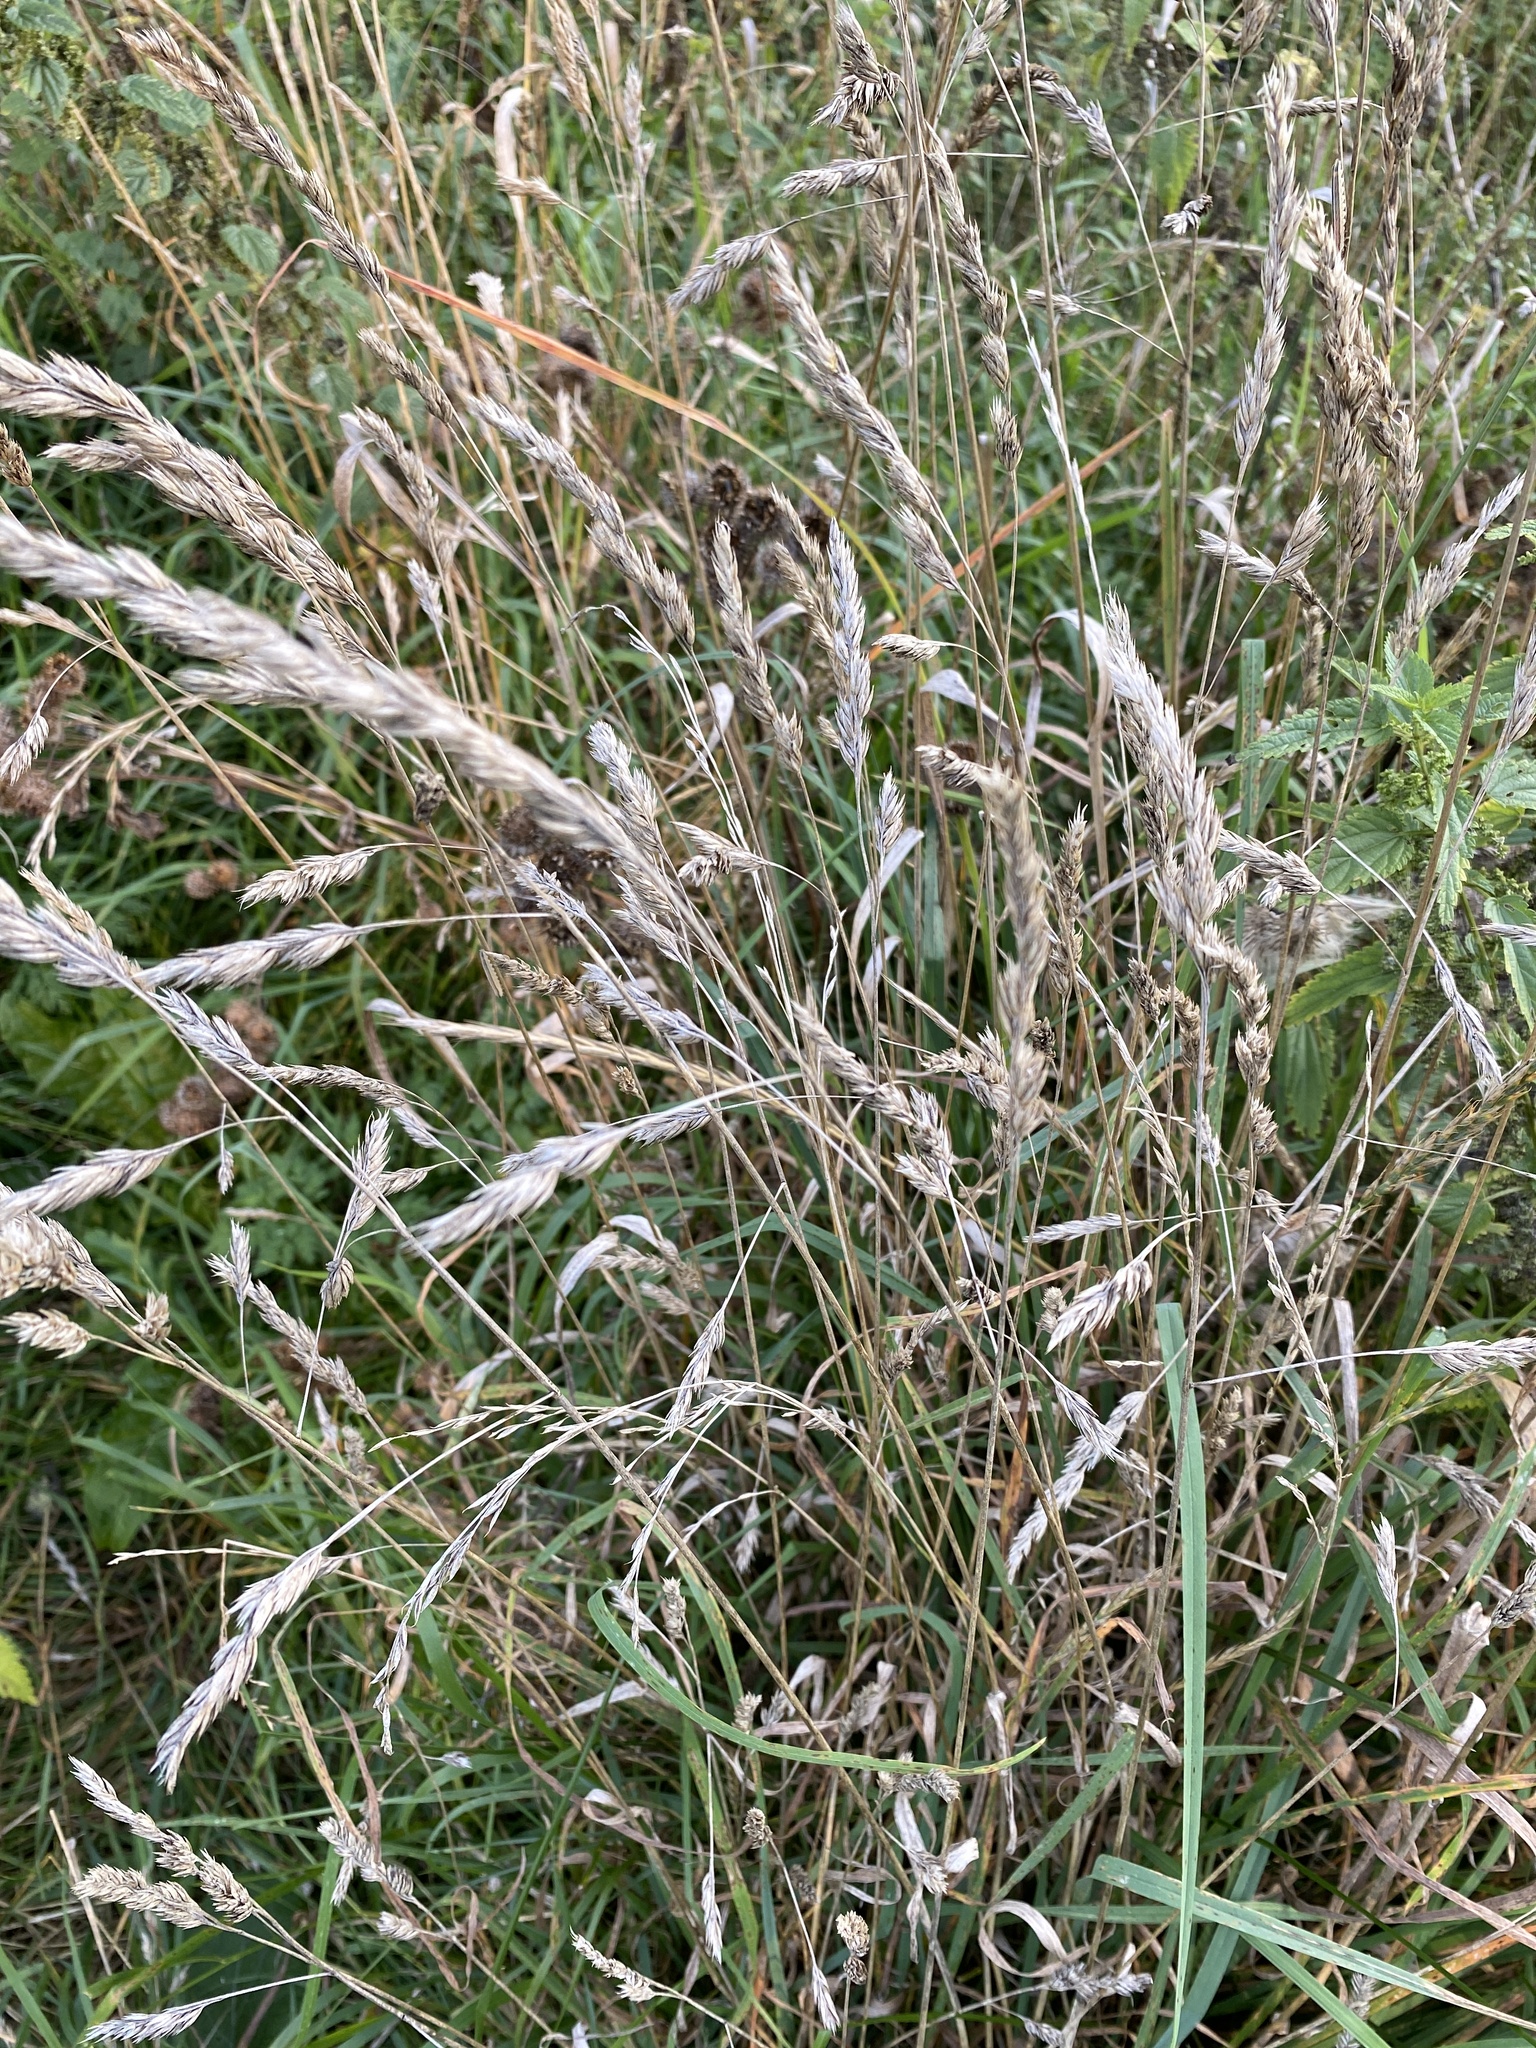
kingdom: Plantae
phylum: Tracheophyta
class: Liliopsida
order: Poales
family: Poaceae
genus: Dactylis
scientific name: Dactylis glomerata
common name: Orchardgrass
